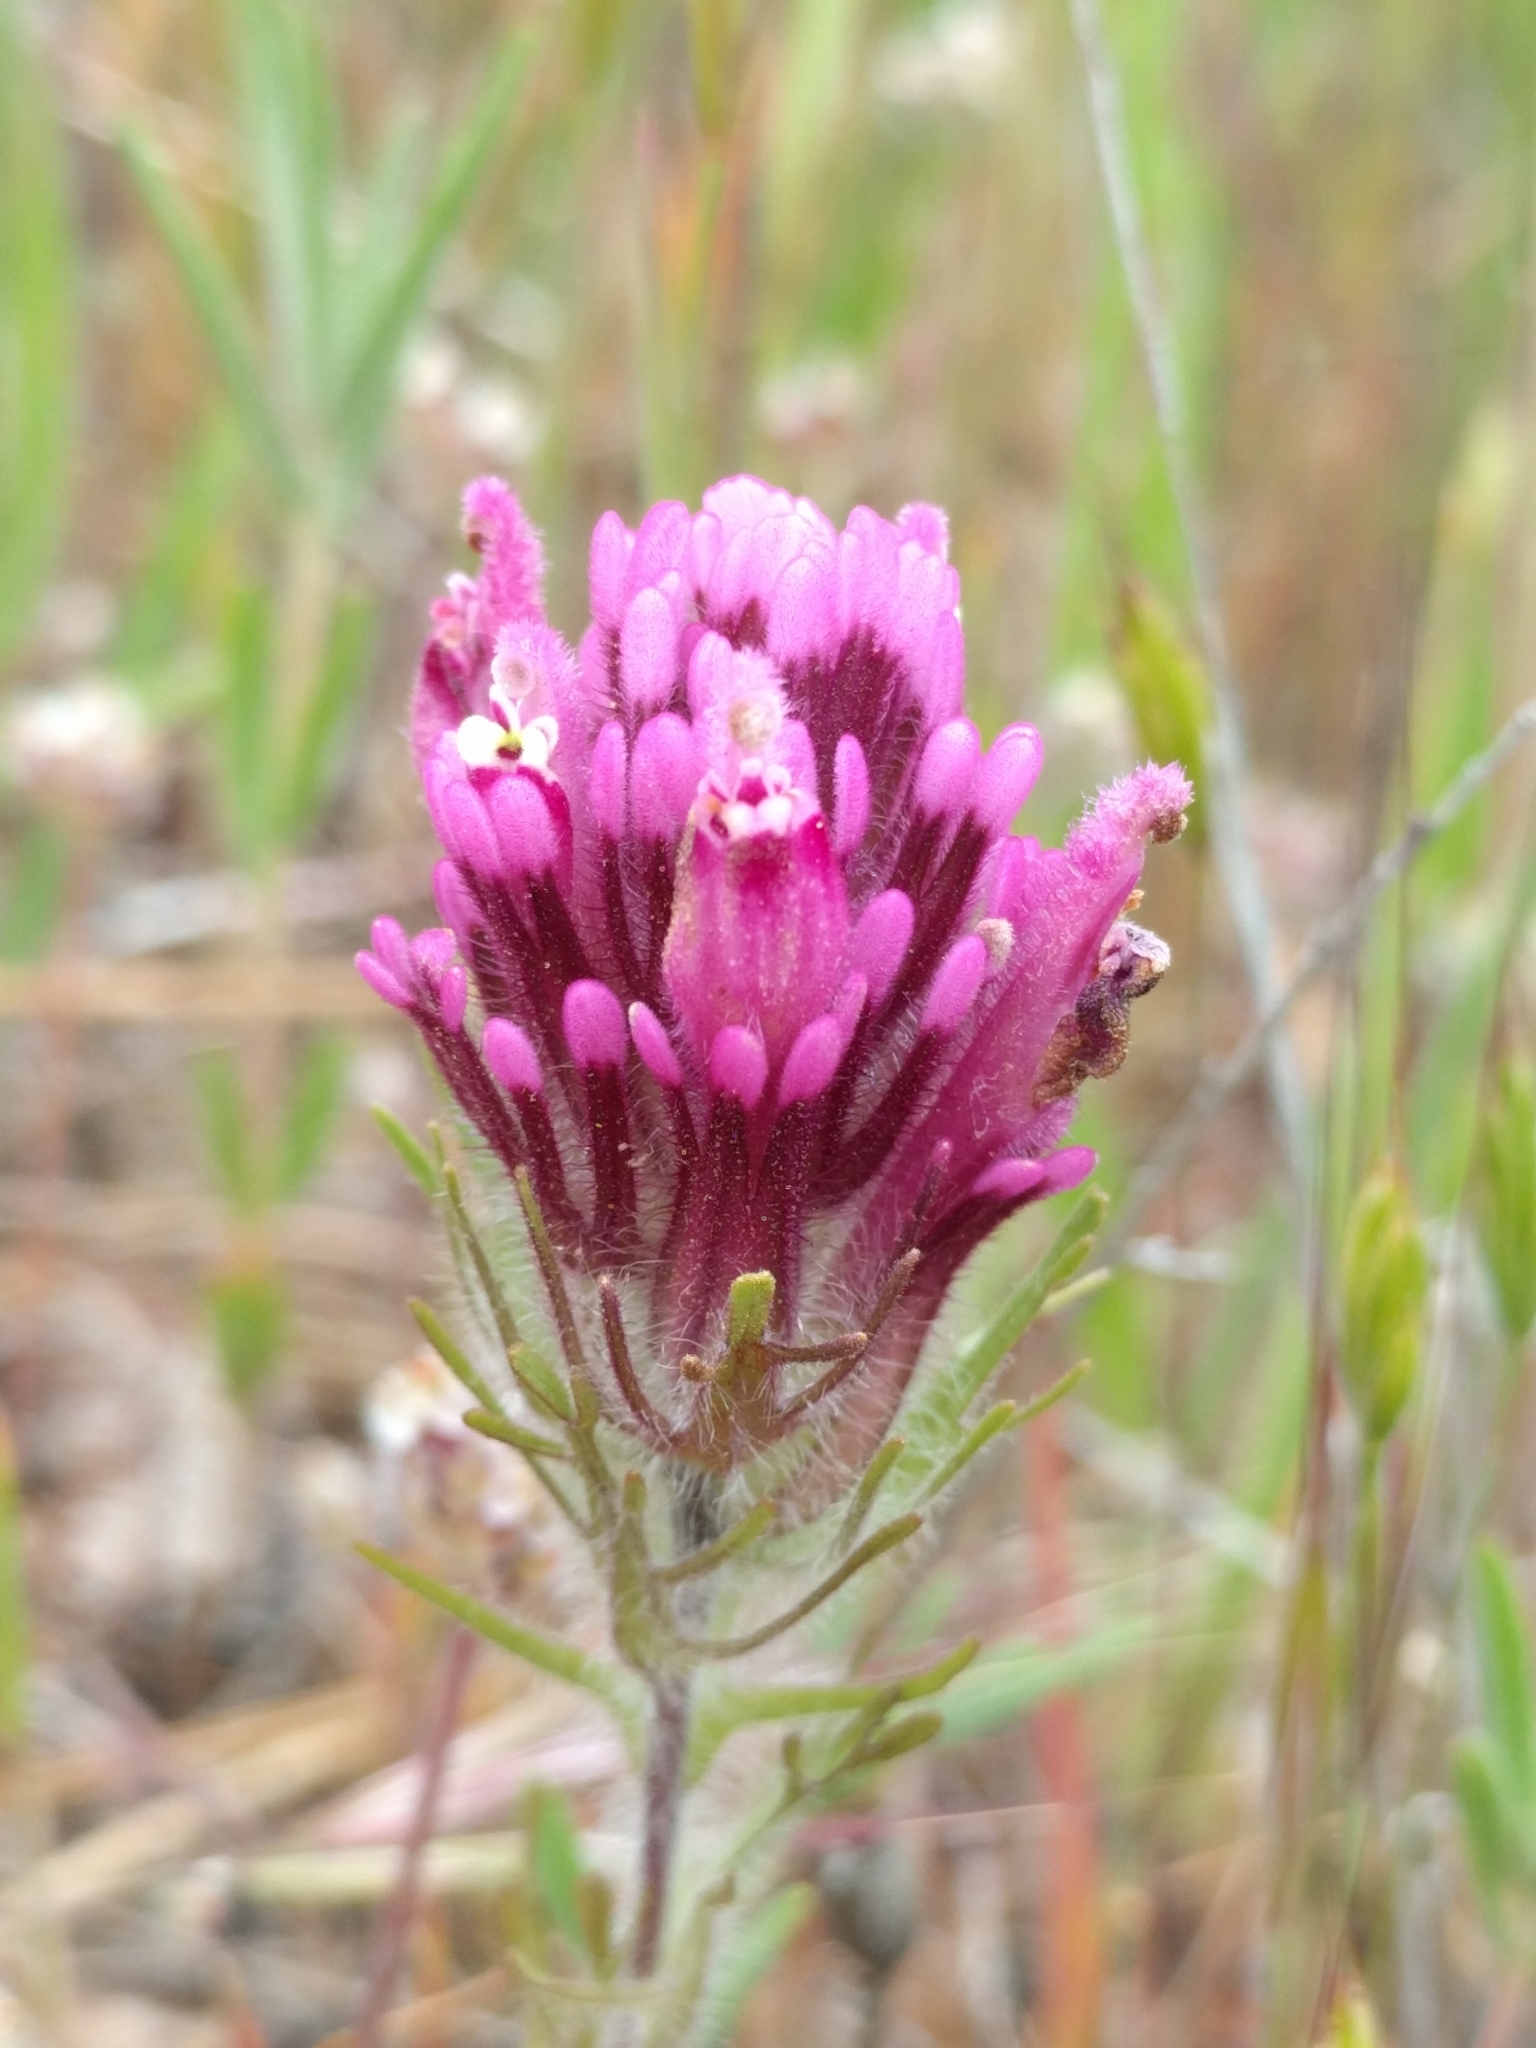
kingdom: Plantae
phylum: Tracheophyta
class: Magnoliopsida
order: Lamiales
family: Orobanchaceae
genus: Castilleja
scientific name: Castilleja exserta
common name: Purple owl-clover
